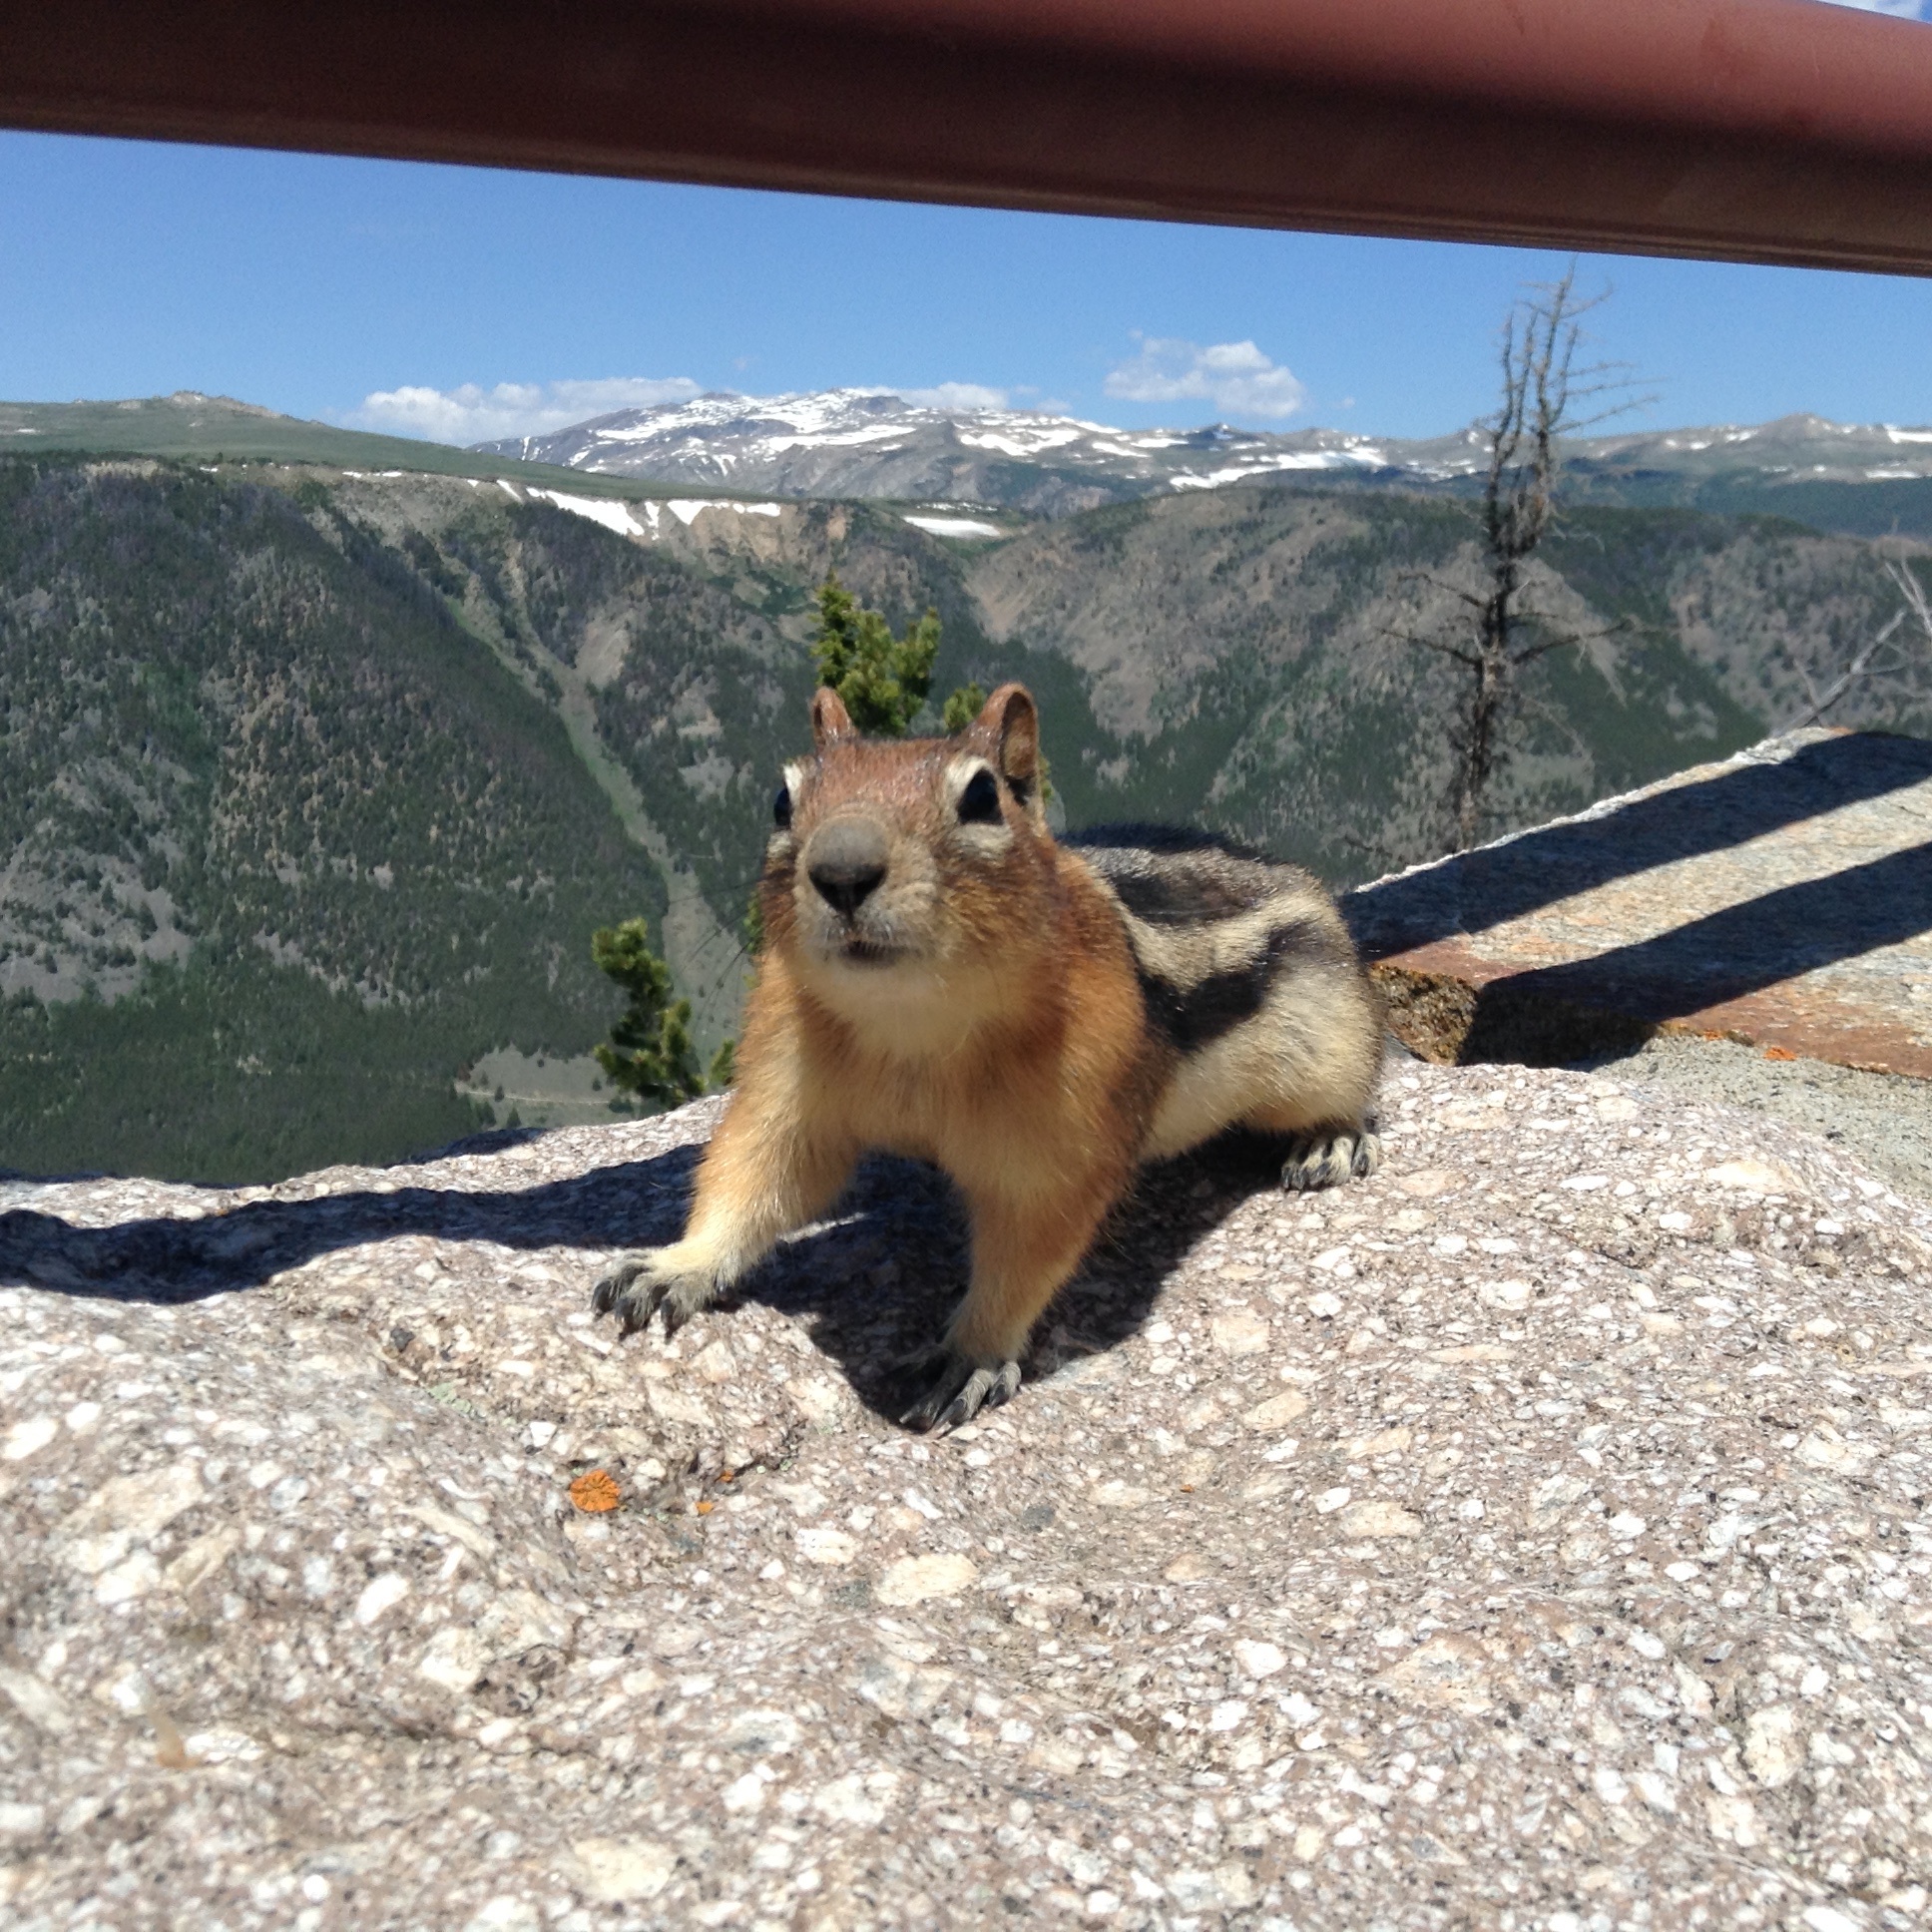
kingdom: Animalia
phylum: Chordata
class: Mammalia
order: Rodentia
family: Sciuridae
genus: Callospermophilus
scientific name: Callospermophilus lateralis
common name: Golden-mantled ground squirrel
